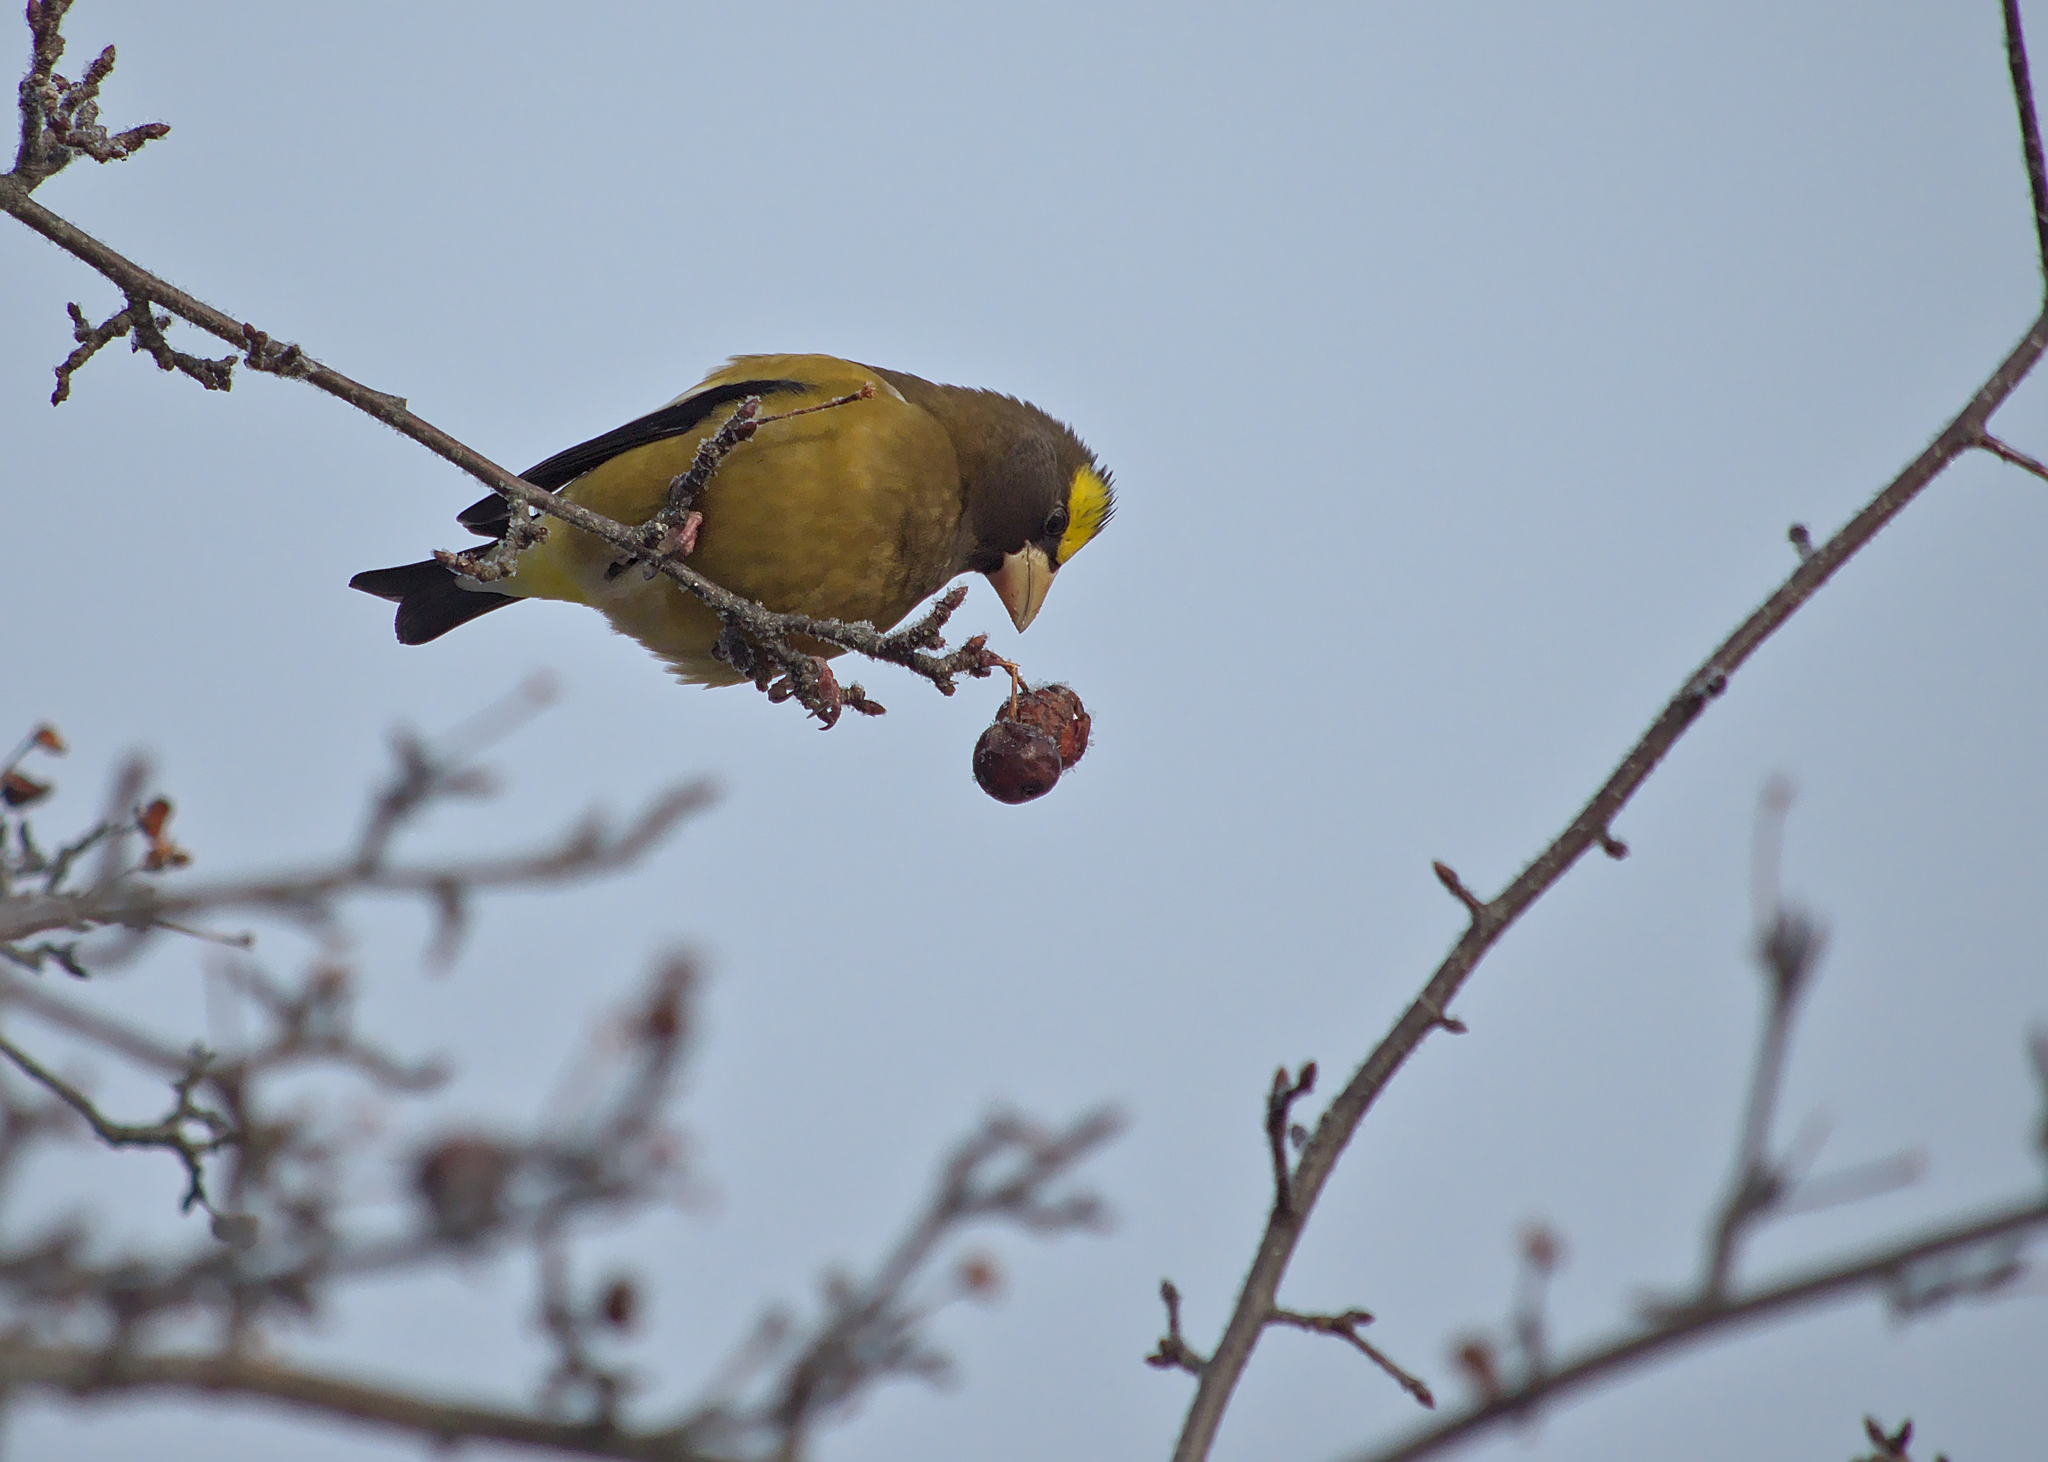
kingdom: Animalia
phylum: Chordata
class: Aves
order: Passeriformes
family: Fringillidae
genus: Hesperiphona
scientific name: Hesperiphona vespertina
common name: Evening grosbeak
